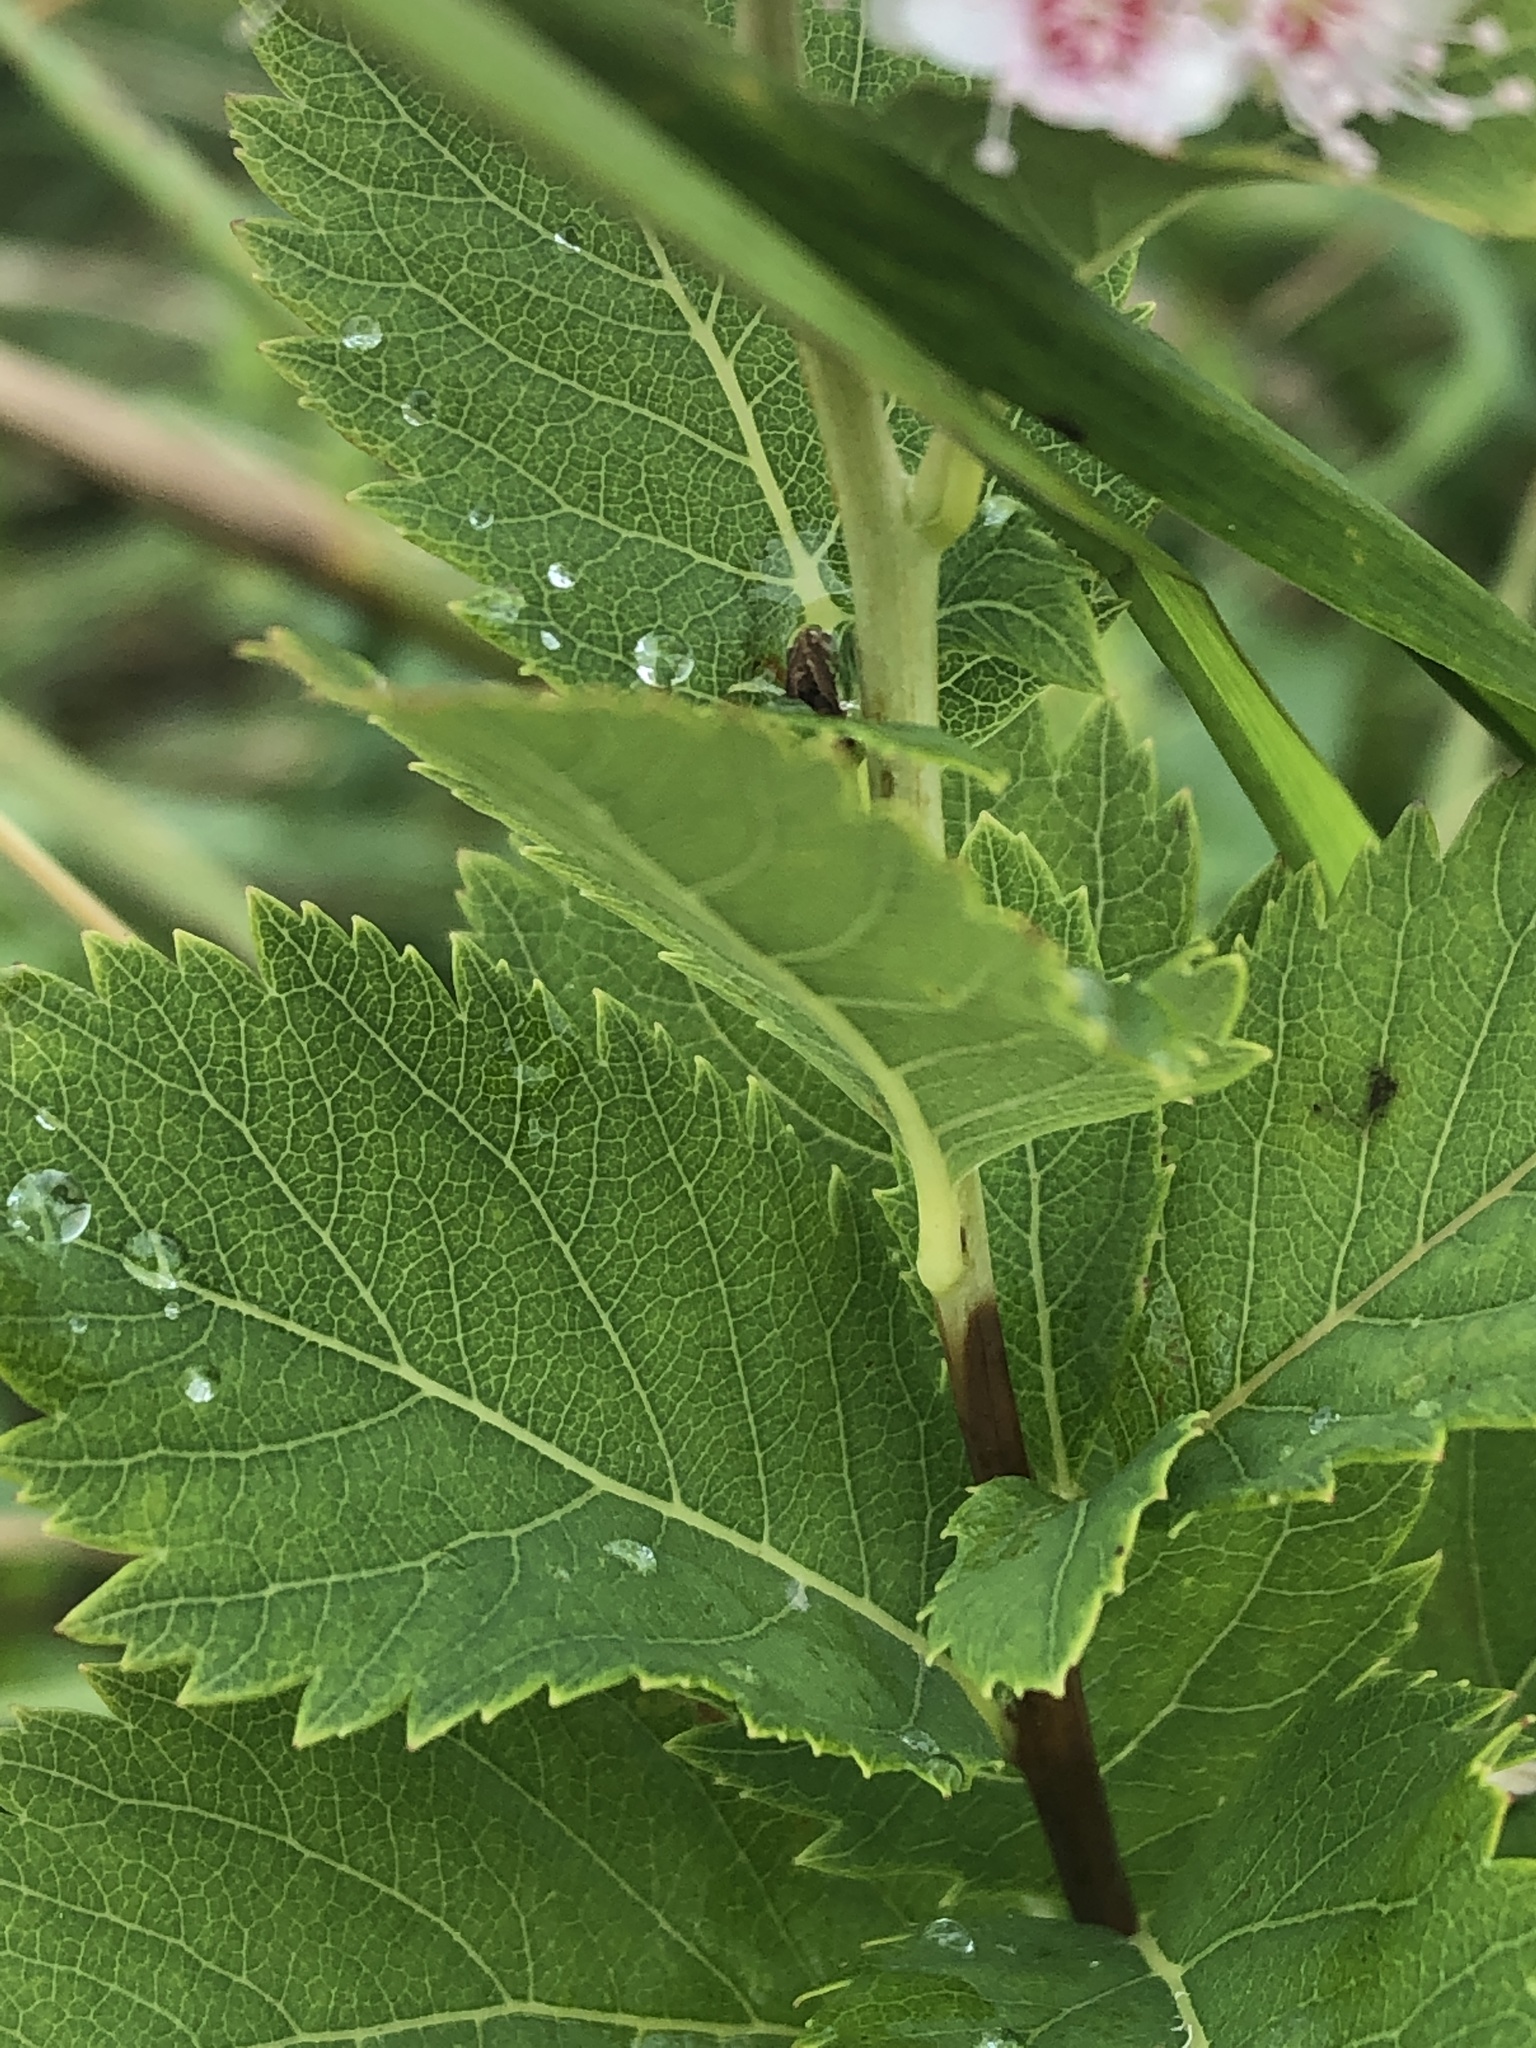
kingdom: Plantae
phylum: Tracheophyta
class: Magnoliopsida
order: Rosales
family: Rosaceae
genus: Spiraea
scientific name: Spiraea alba
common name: Pale bridewort
